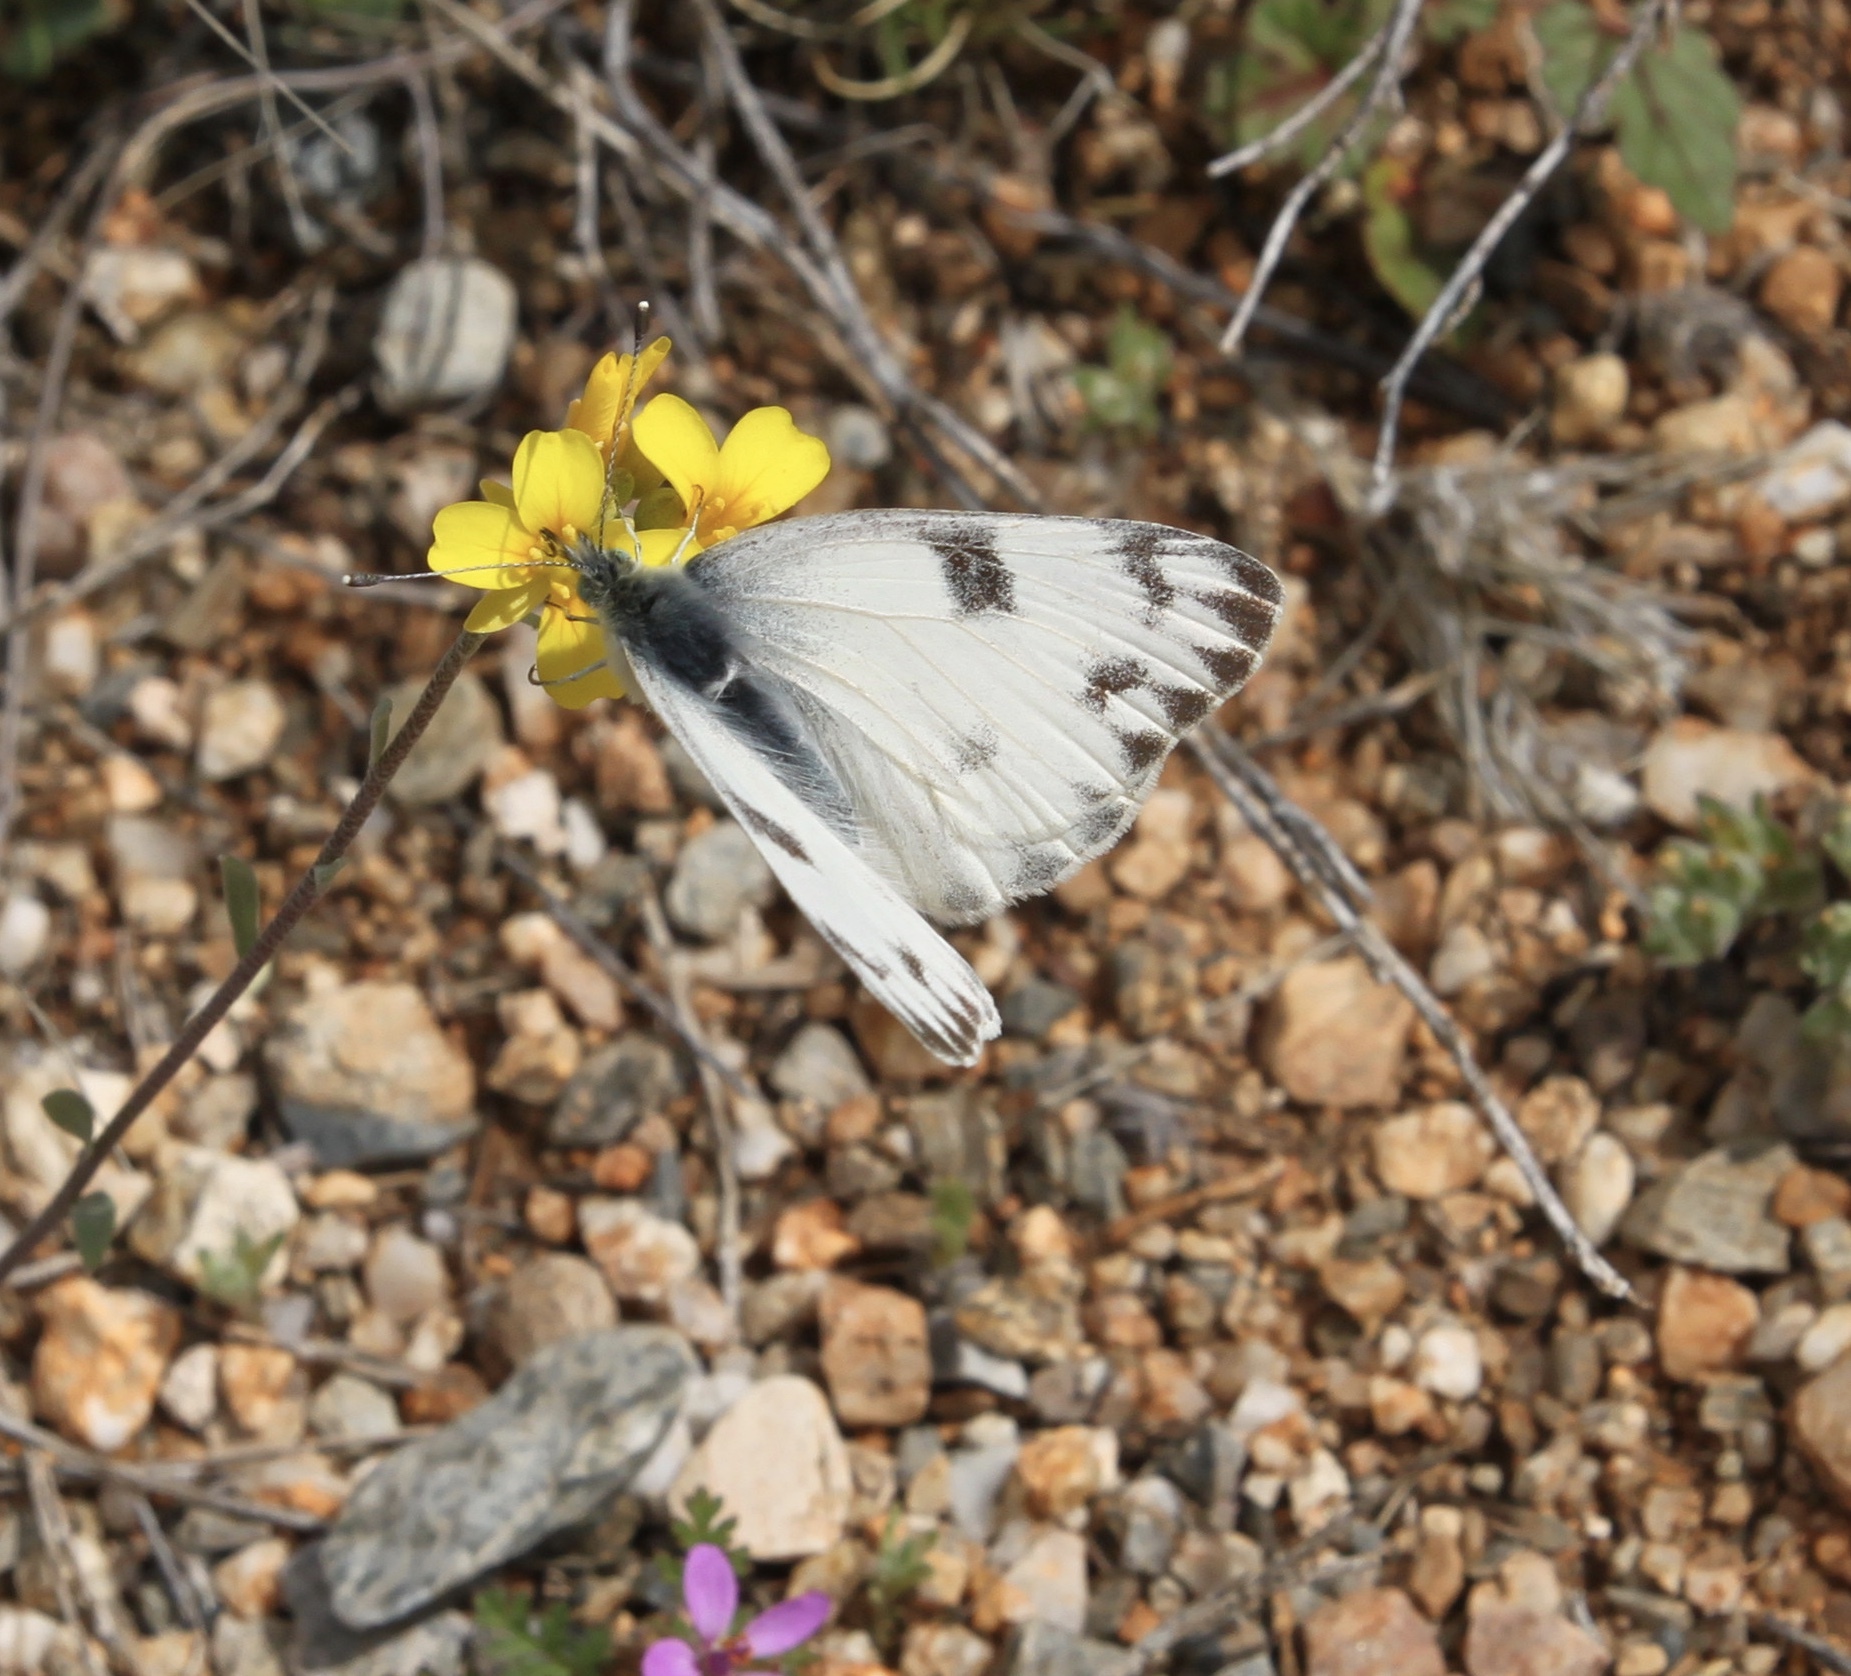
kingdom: Animalia
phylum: Arthropoda
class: Insecta
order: Lepidoptera
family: Pieridae
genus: Pontia
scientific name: Pontia protodice
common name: Checkered white
